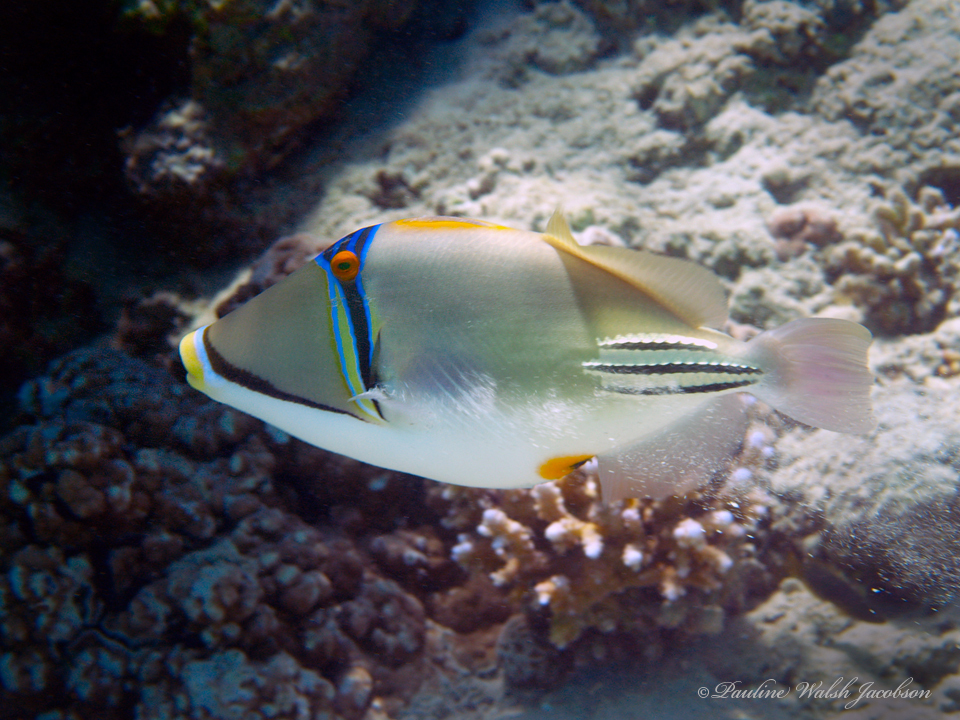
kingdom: Animalia
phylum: Chordata
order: Tetraodontiformes
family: Balistidae
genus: Rhinecanthus
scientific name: Rhinecanthus assasi
